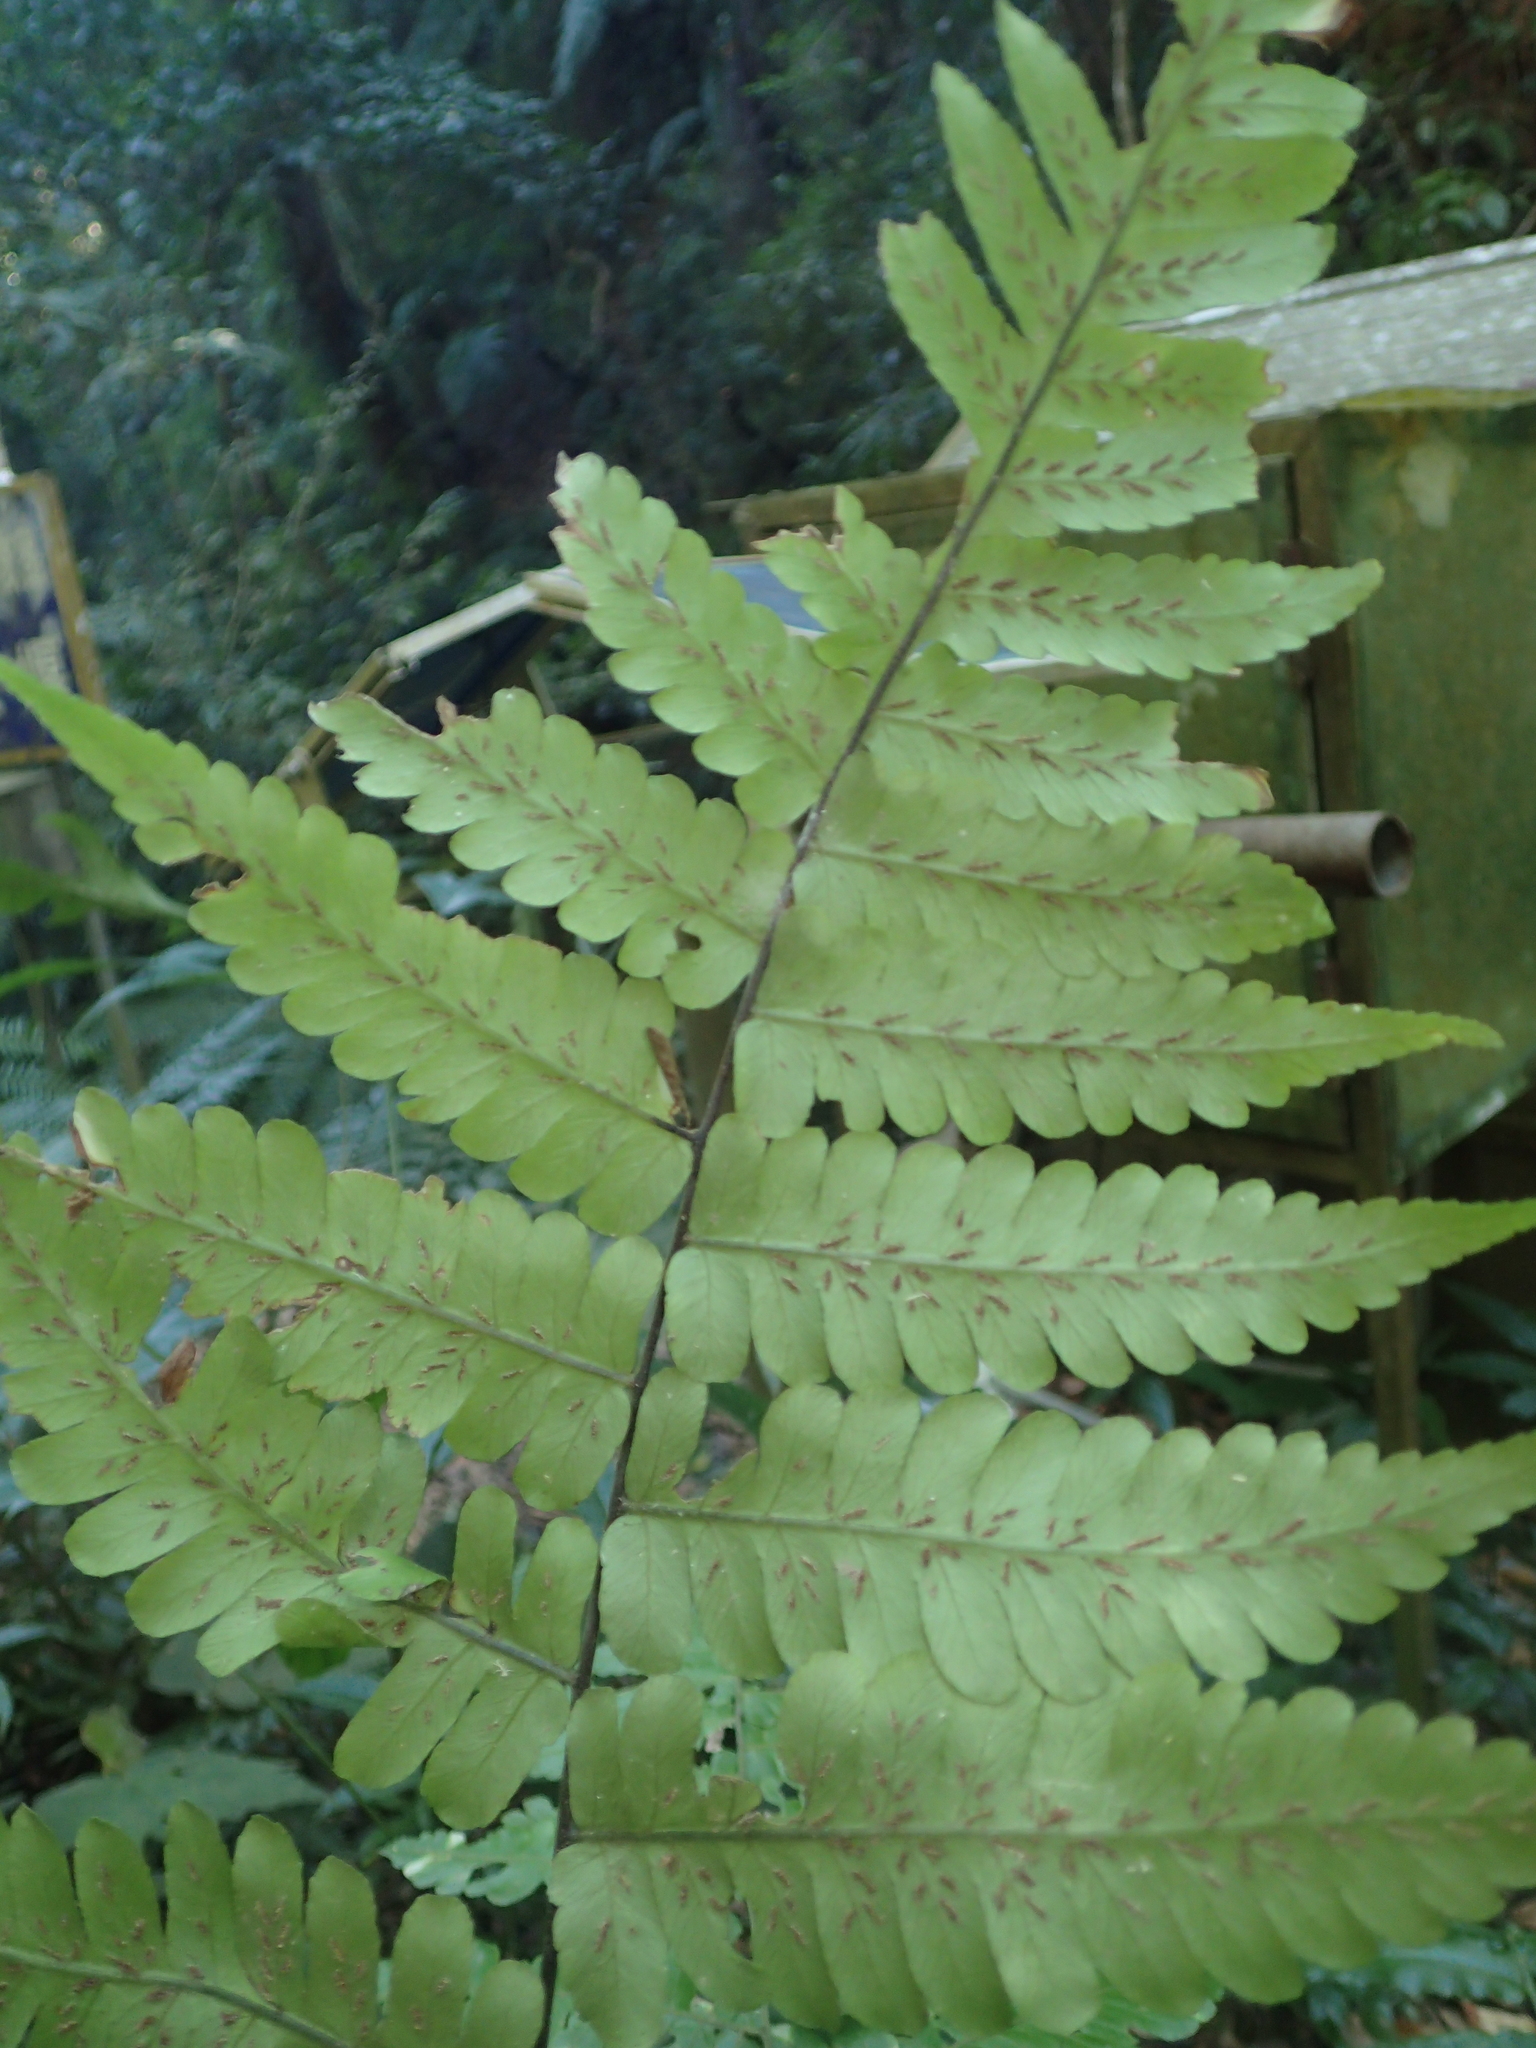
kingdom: Plantae
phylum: Tracheophyta
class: Polypodiopsida
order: Polypodiales
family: Athyriaceae
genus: Diplazium
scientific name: Diplazium doederleinii
